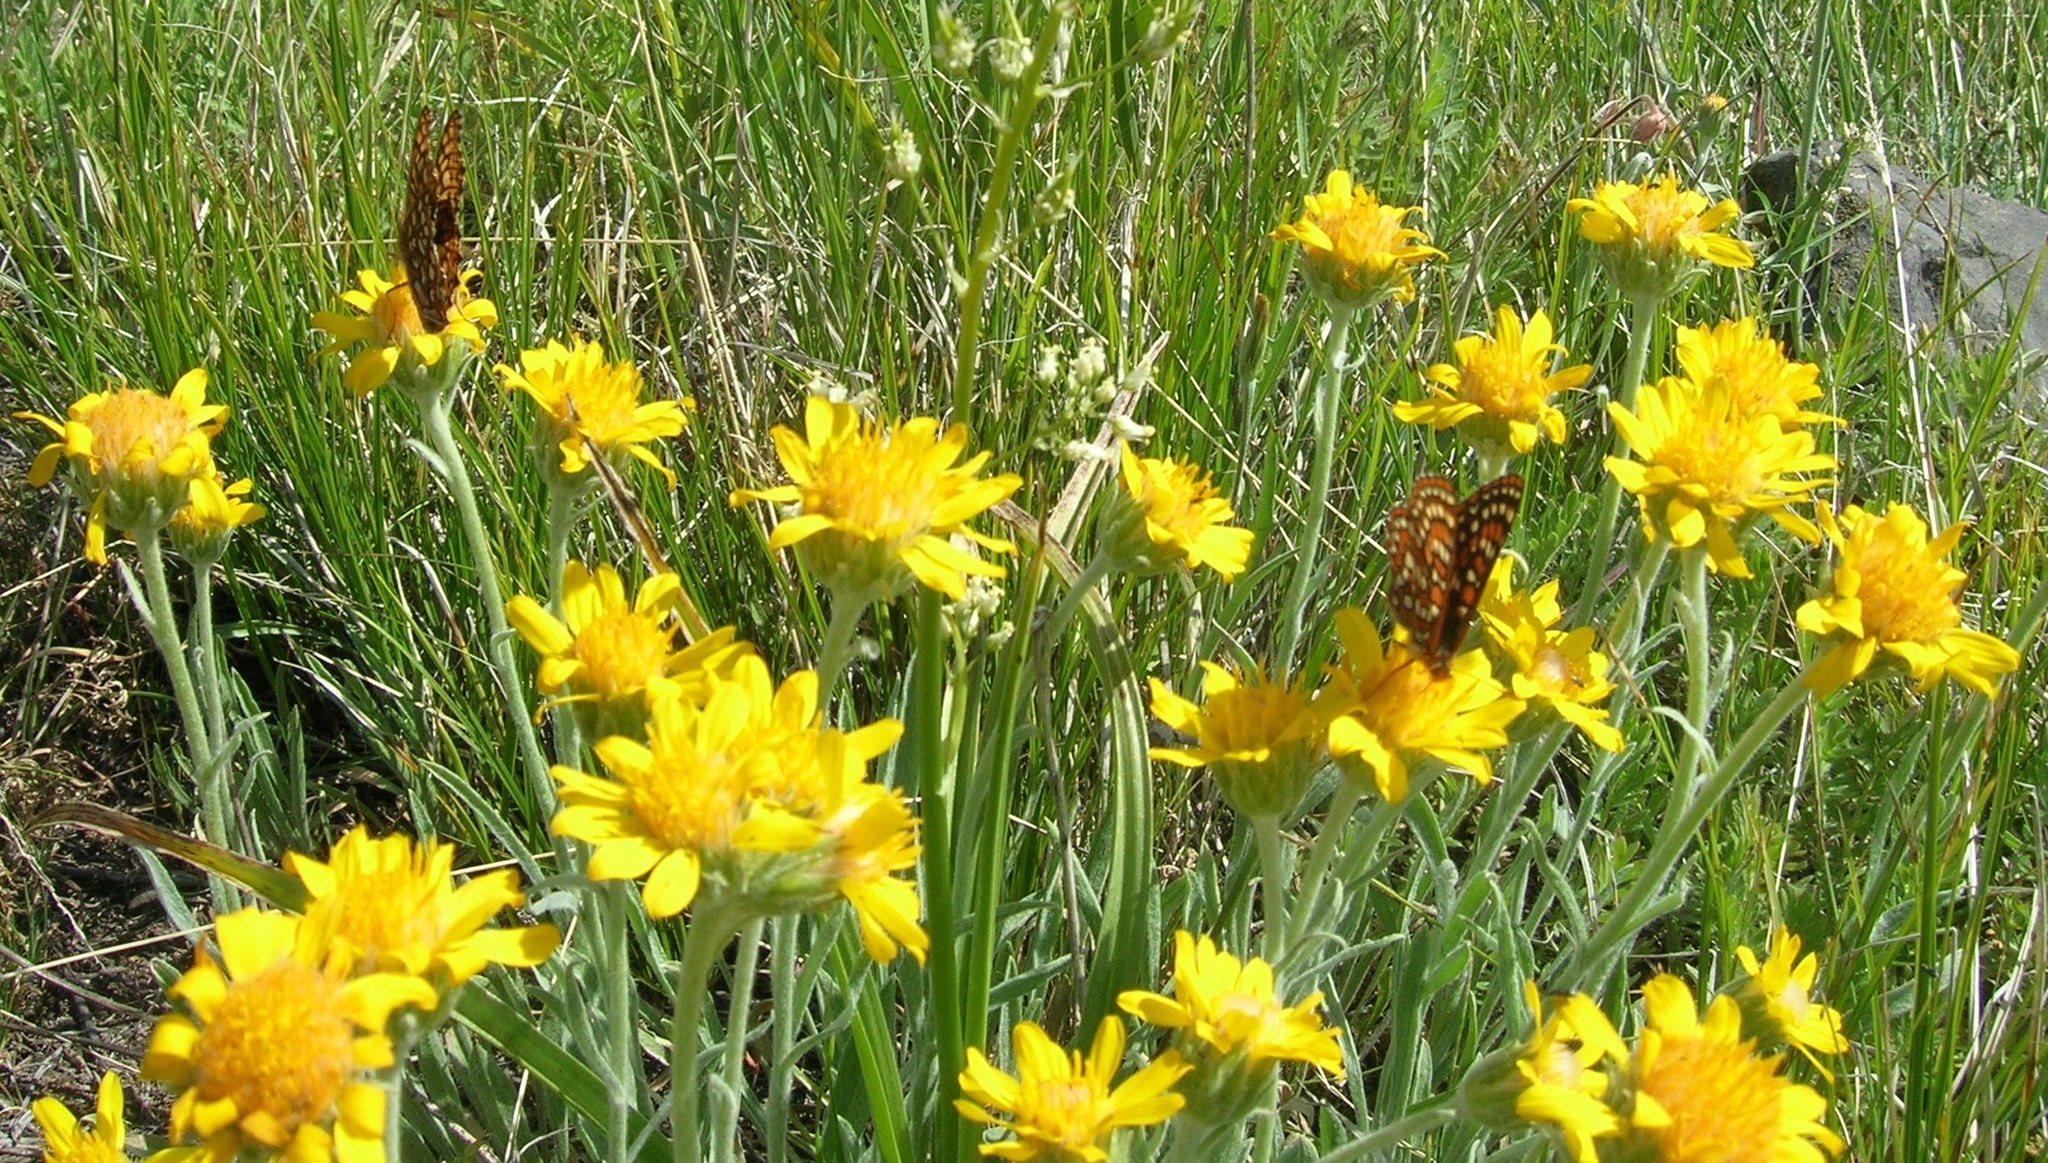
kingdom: Animalia
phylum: Arthropoda
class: Insecta
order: Lepidoptera
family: Nymphalidae
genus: Occidryas
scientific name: Occidryas colon
